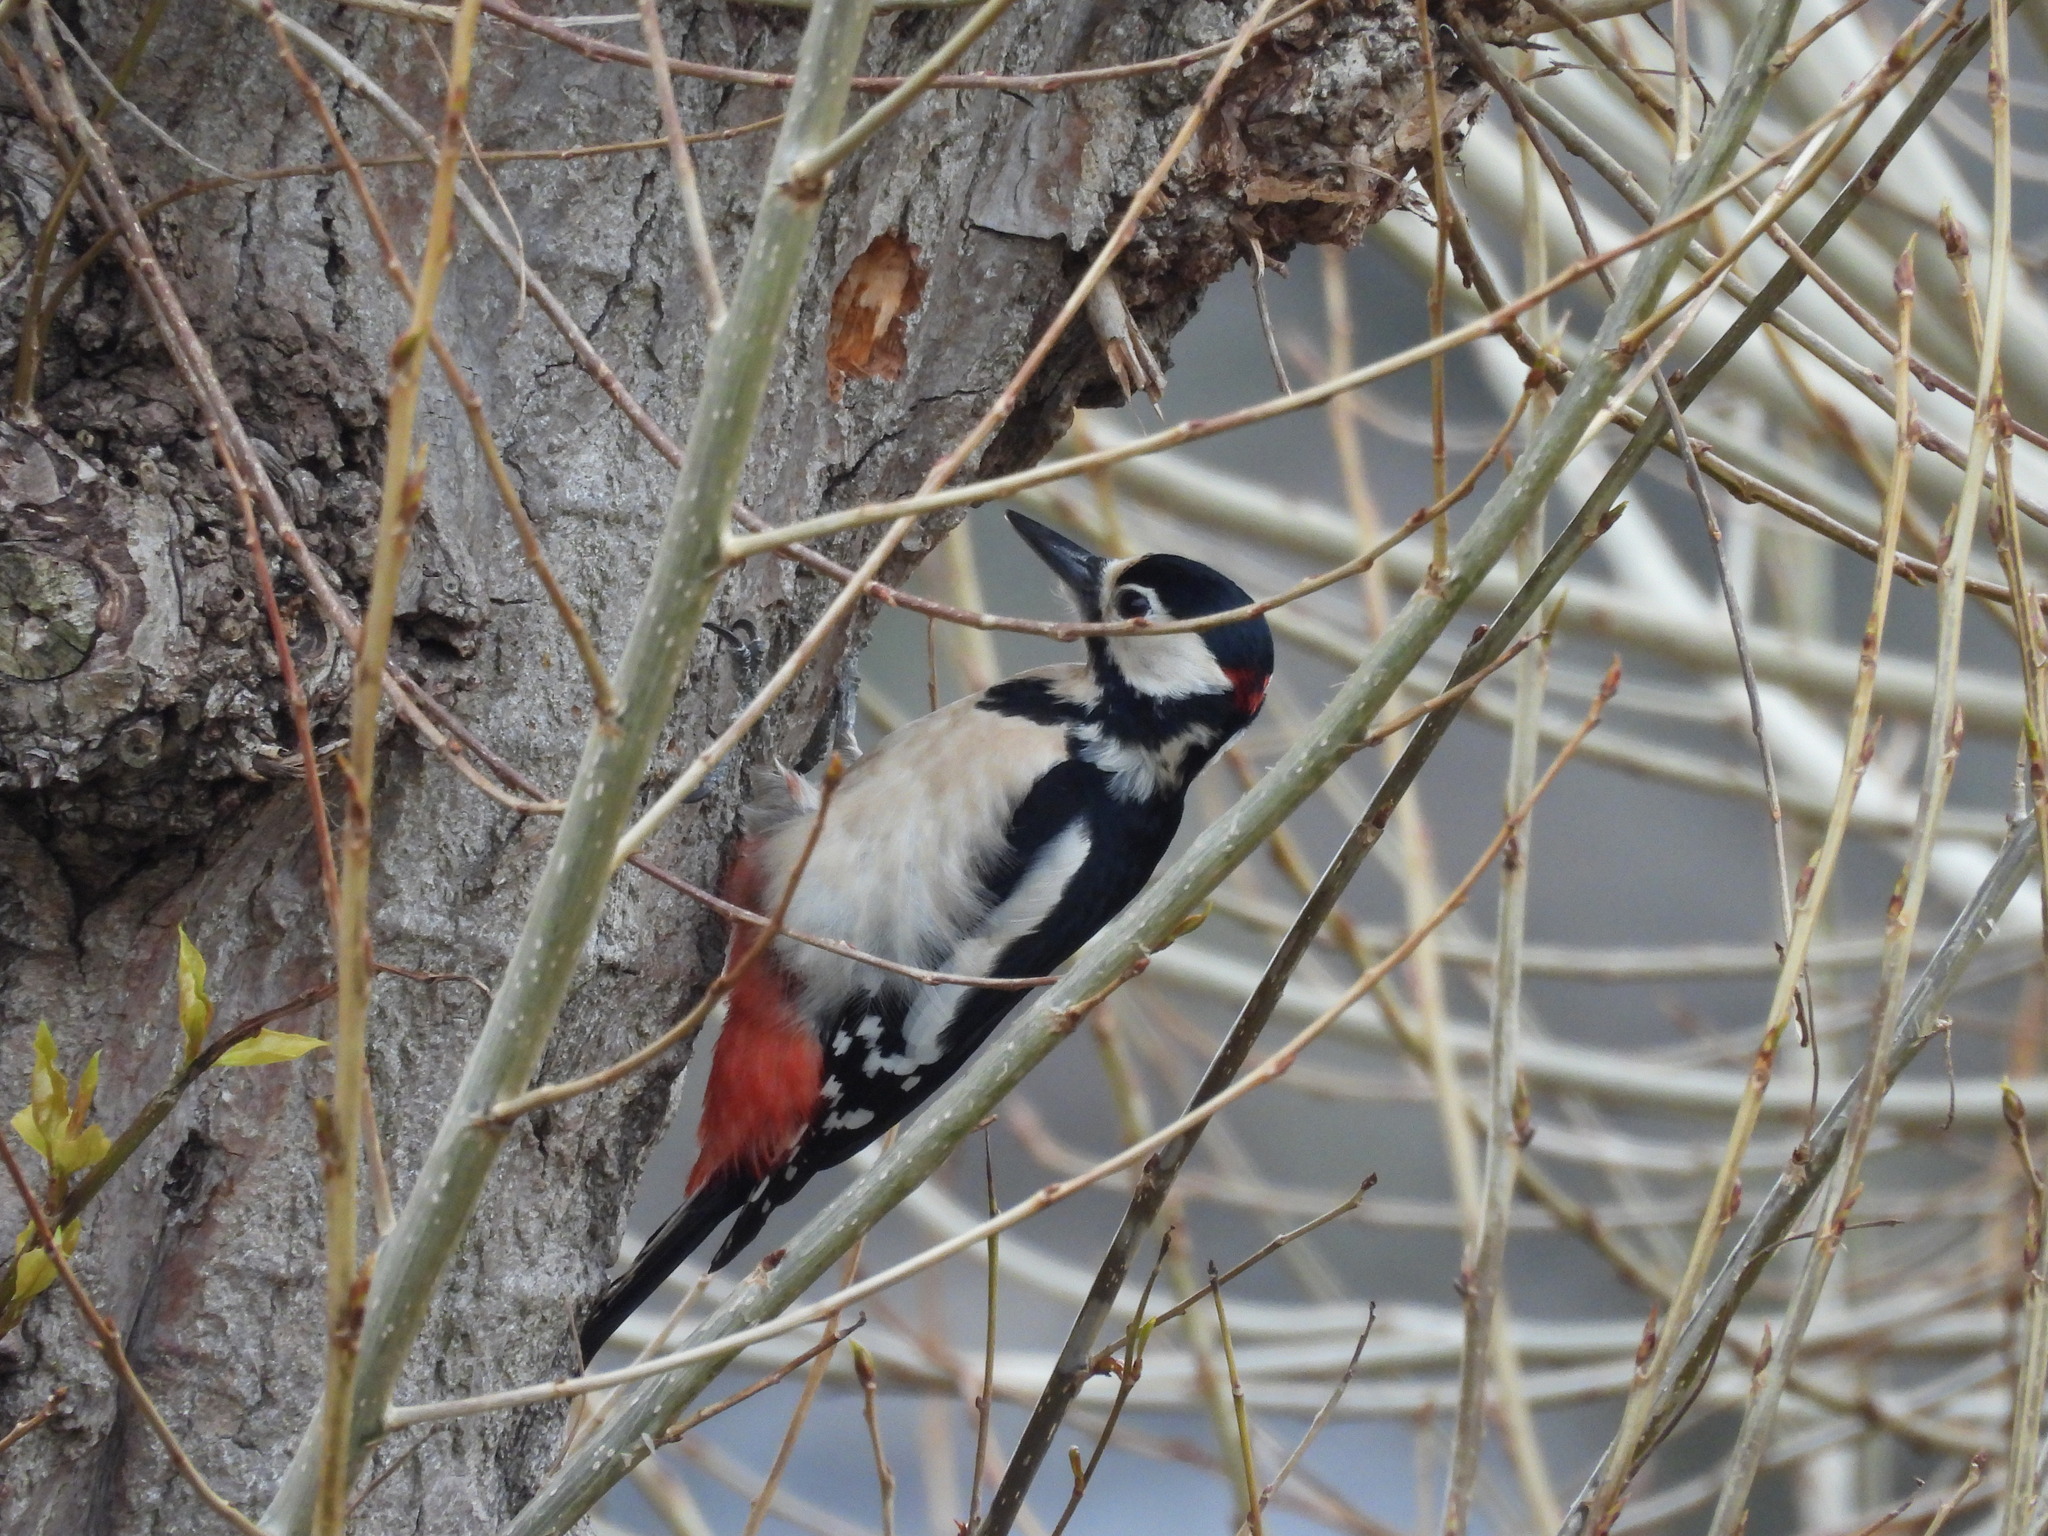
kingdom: Animalia
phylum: Chordata
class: Aves
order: Piciformes
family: Picidae
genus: Dendrocopos
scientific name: Dendrocopos major
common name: Great spotted woodpecker
